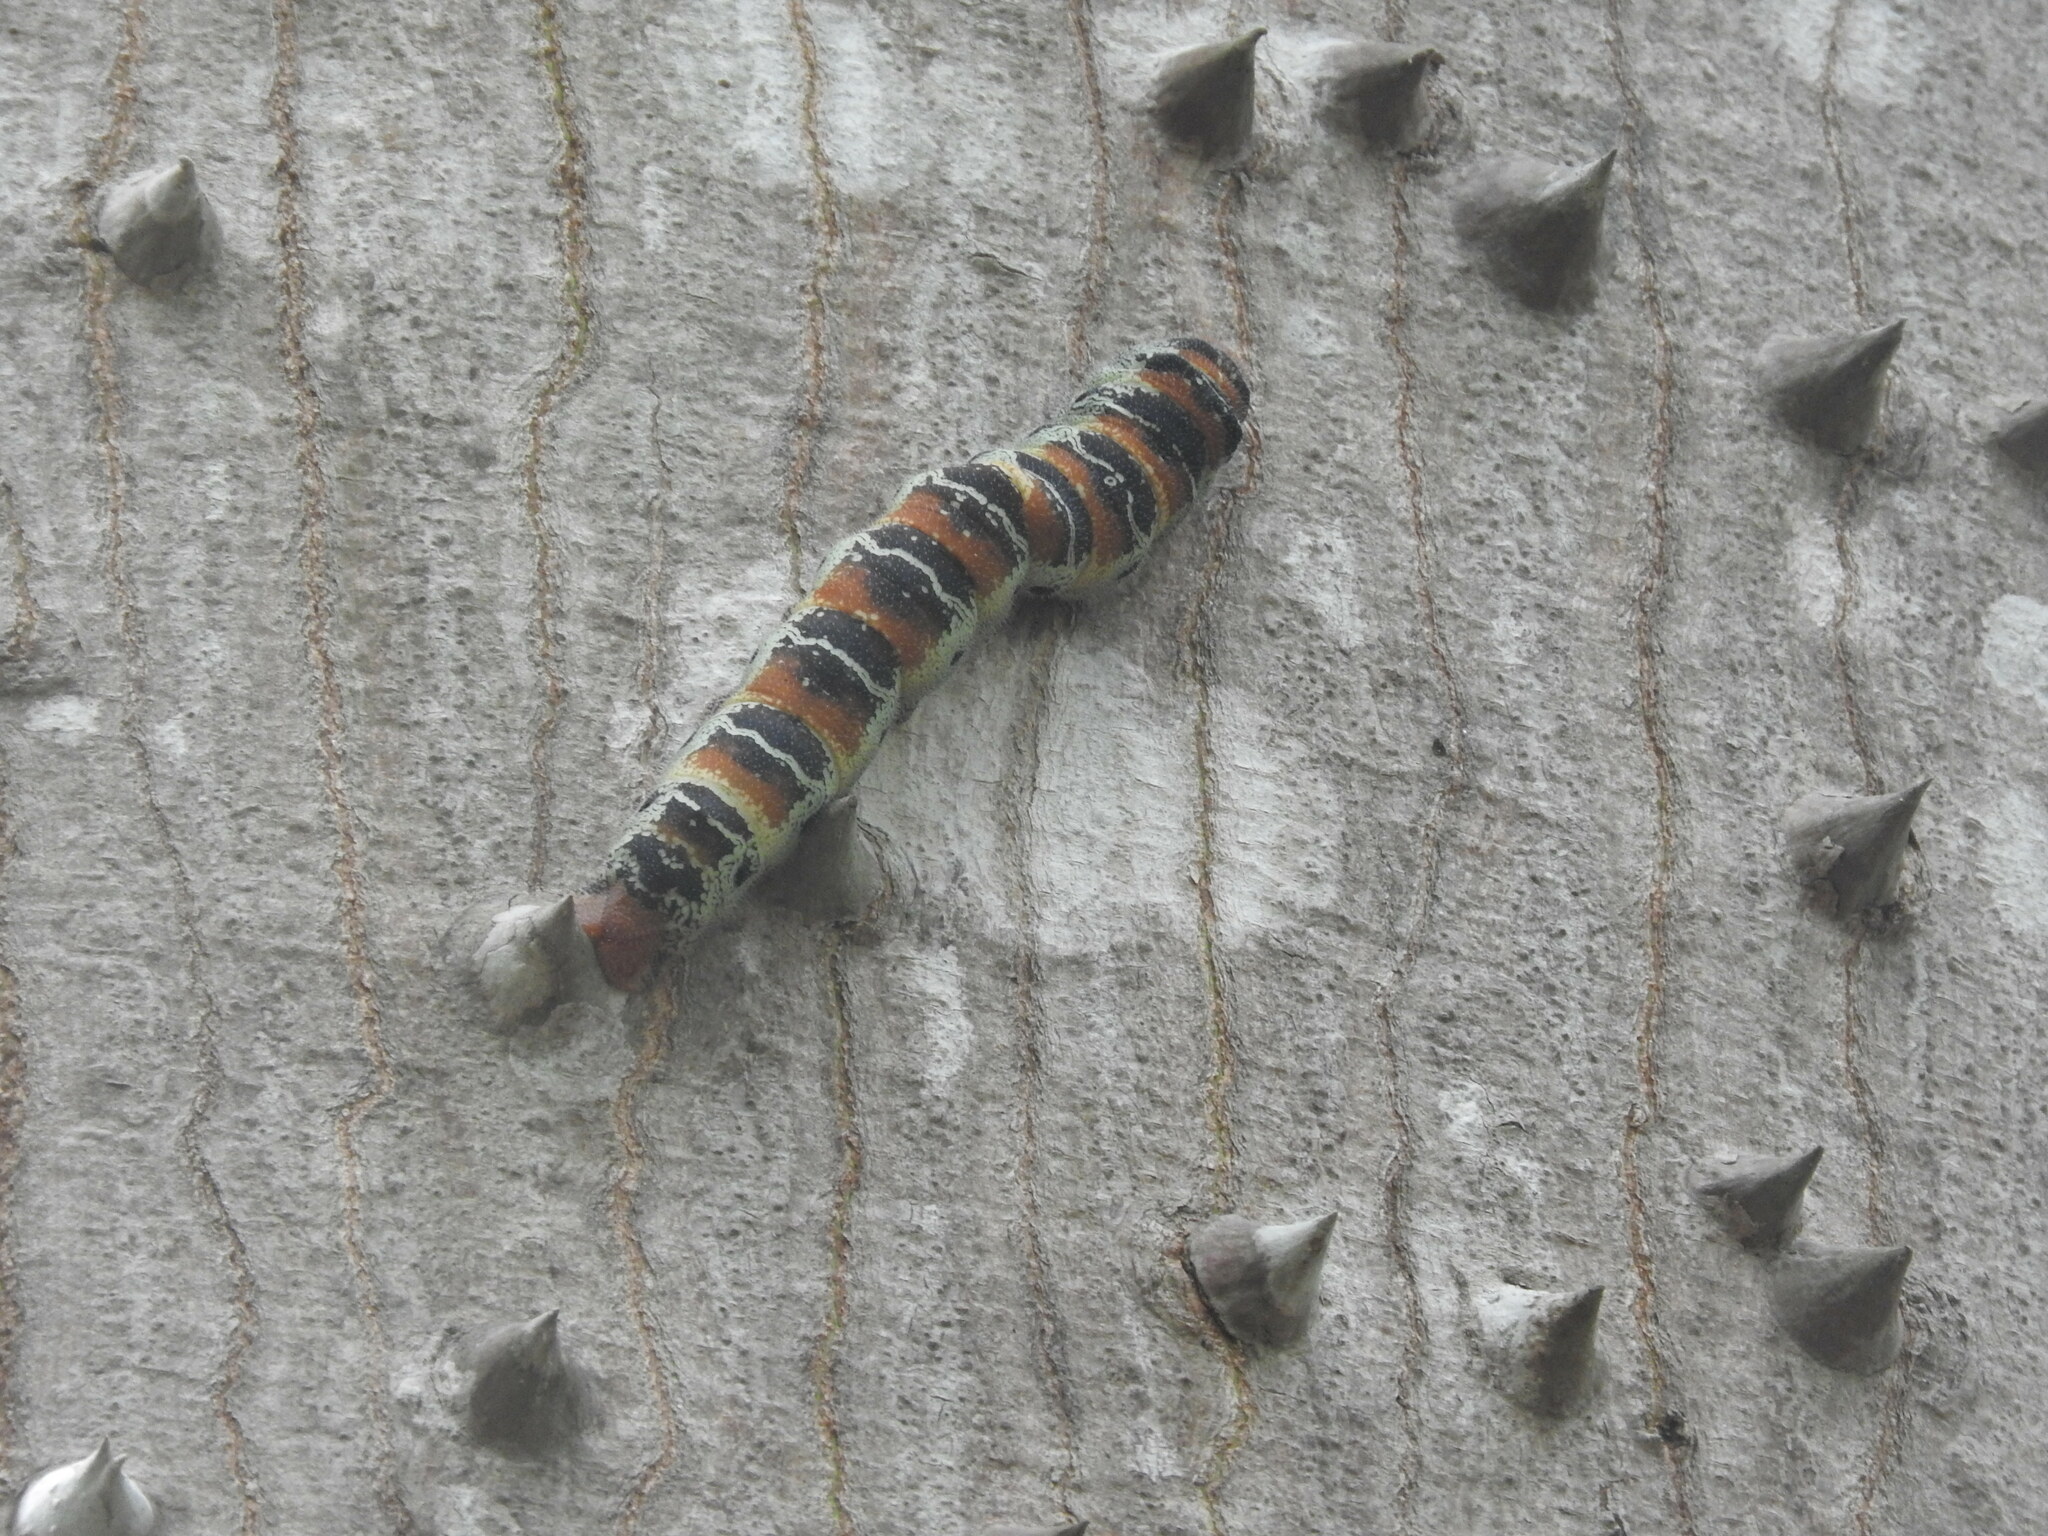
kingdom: Animalia
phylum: Arthropoda
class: Insecta
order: Lepidoptera
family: Saturniidae
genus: Arsenura
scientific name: Arsenura armida
